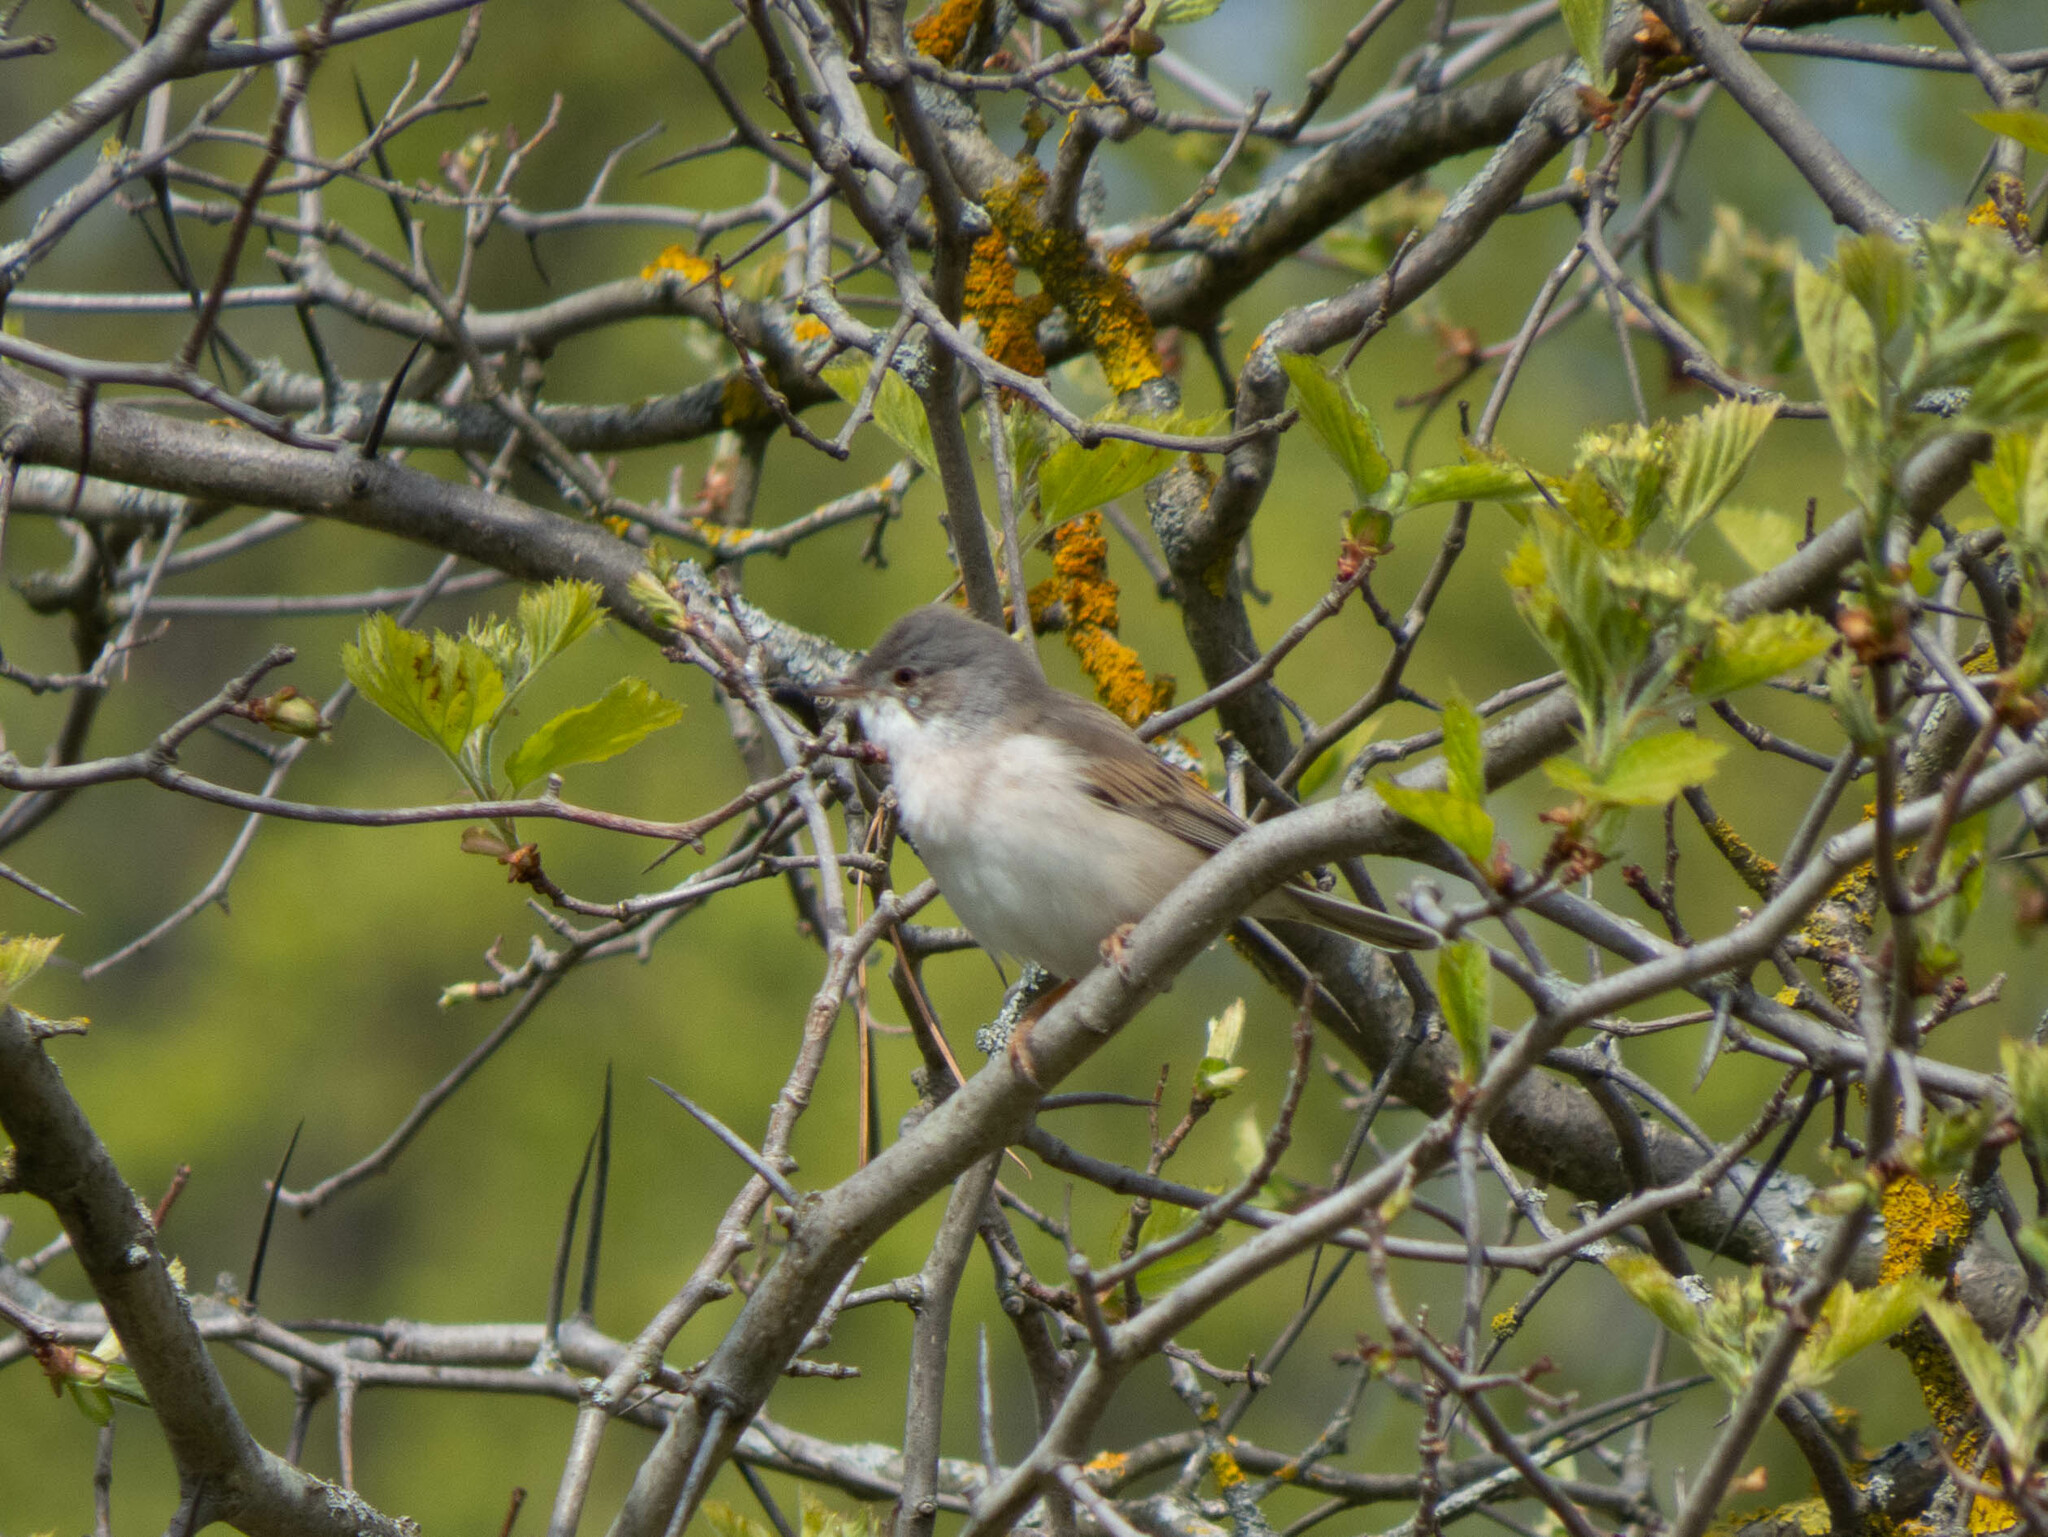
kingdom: Animalia
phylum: Chordata
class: Aves
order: Passeriformes
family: Sylviidae
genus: Sylvia
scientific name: Sylvia communis
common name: Common whitethroat
